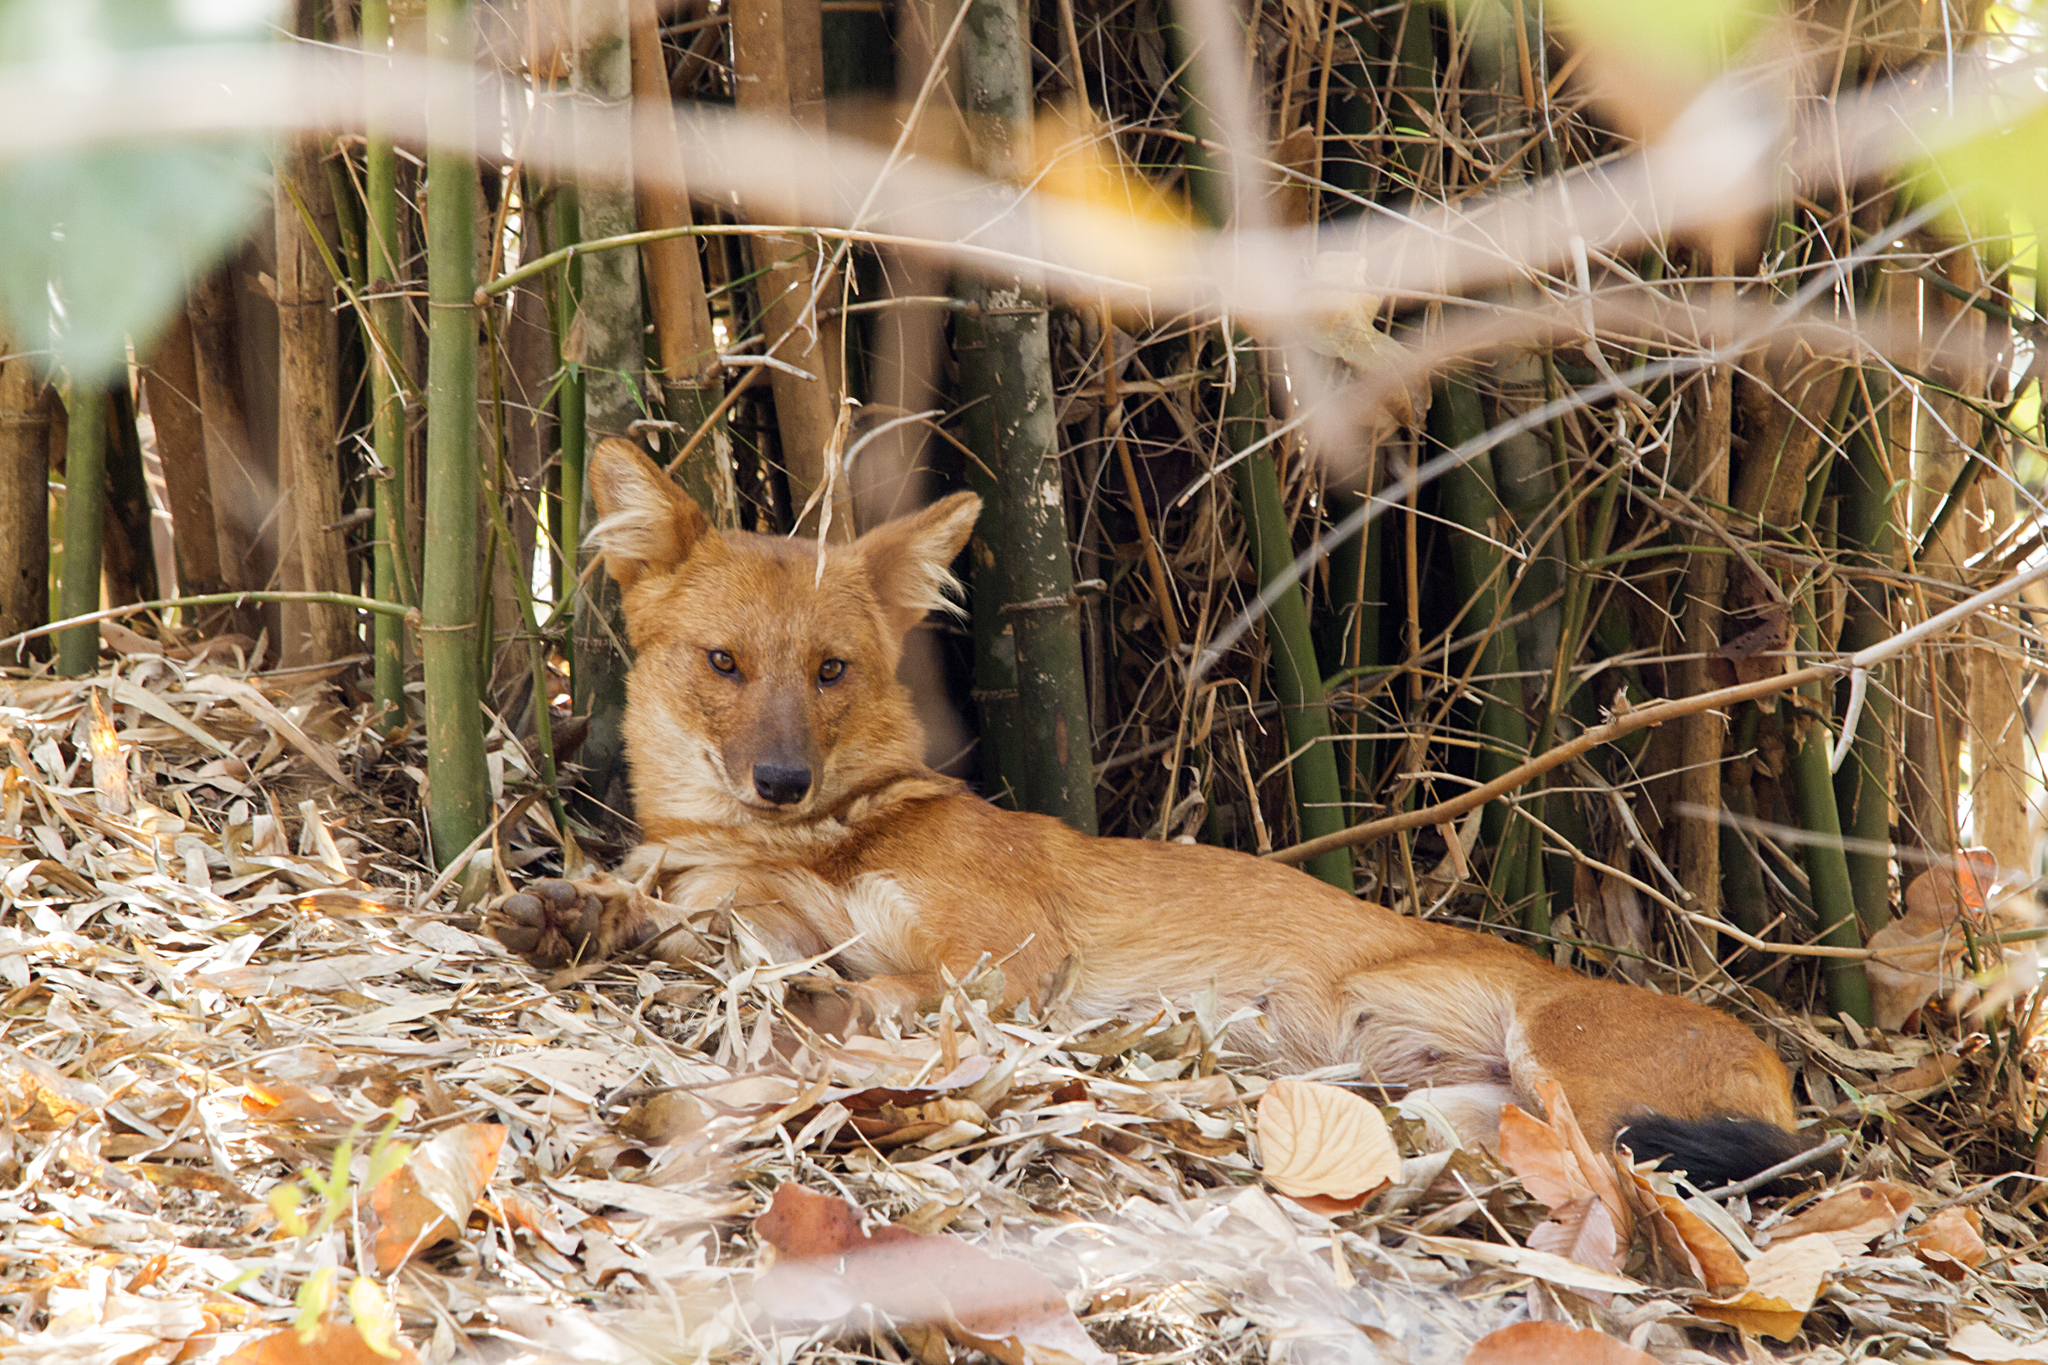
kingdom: Animalia
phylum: Chordata
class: Mammalia
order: Carnivora
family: Canidae
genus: Cuon
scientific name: Cuon alpinus
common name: Dhole
